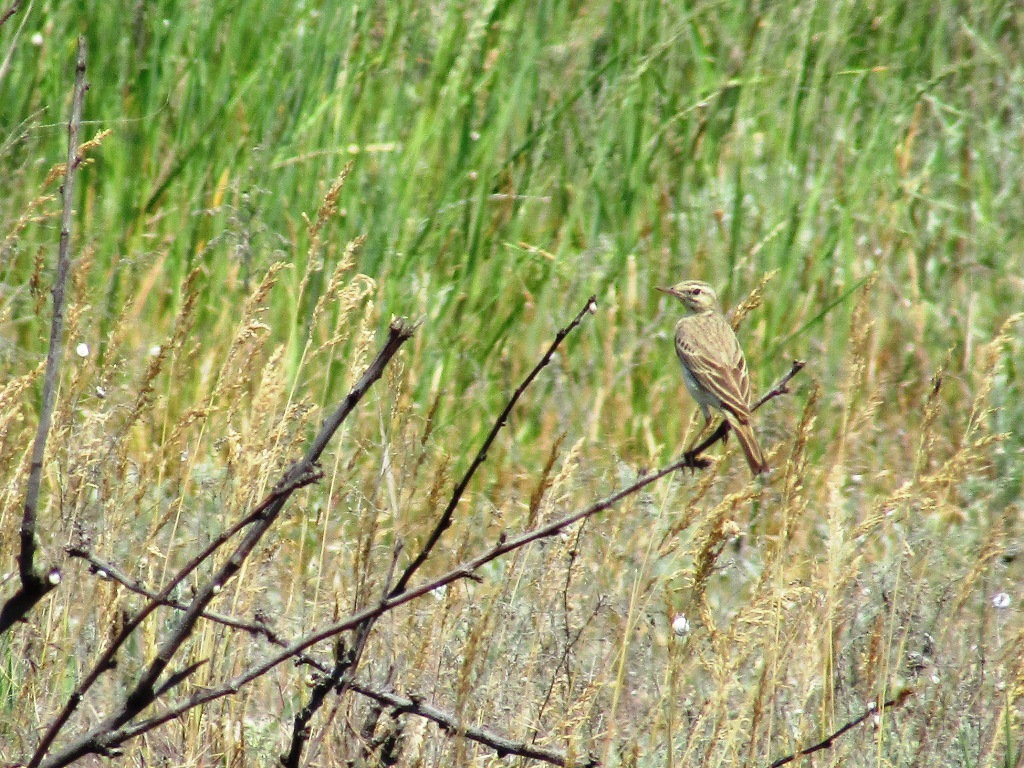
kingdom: Animalia
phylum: Chordata
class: Aves
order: Passeriformes
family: Motacillidae
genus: Anthus
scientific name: Anthus campestris
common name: Tawny pipit
